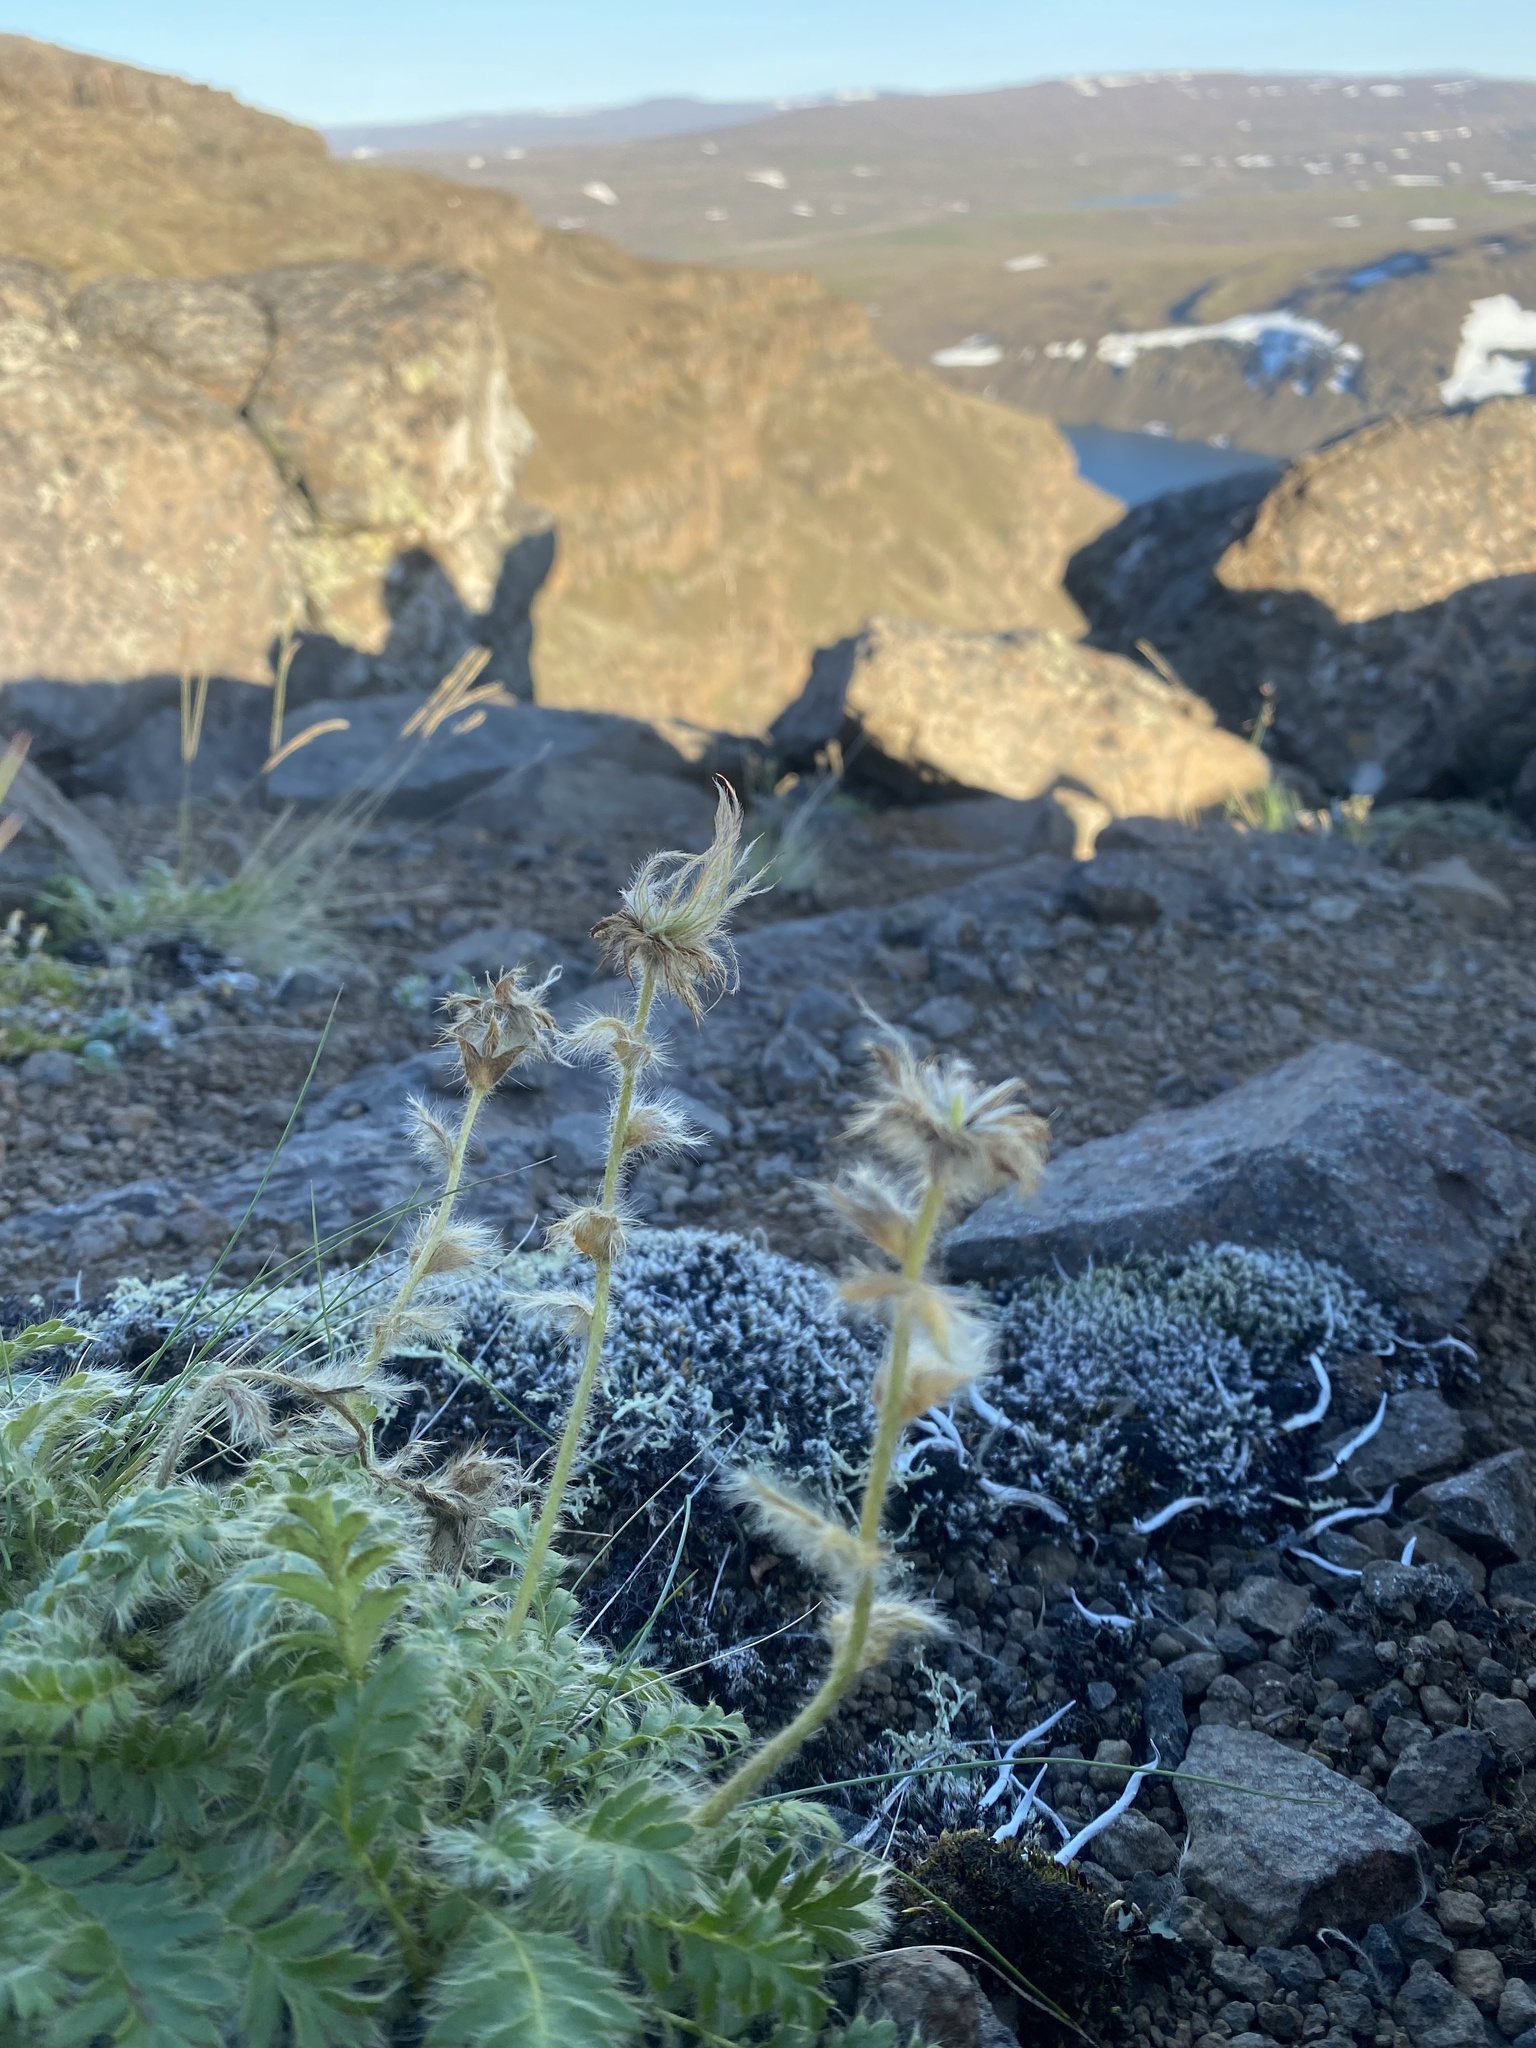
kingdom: Plantae
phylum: Tracheophyta
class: Magnoliopsida
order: Rosales
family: Rosaceae
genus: Geum
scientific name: Geum glaciale
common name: Glacier avens
